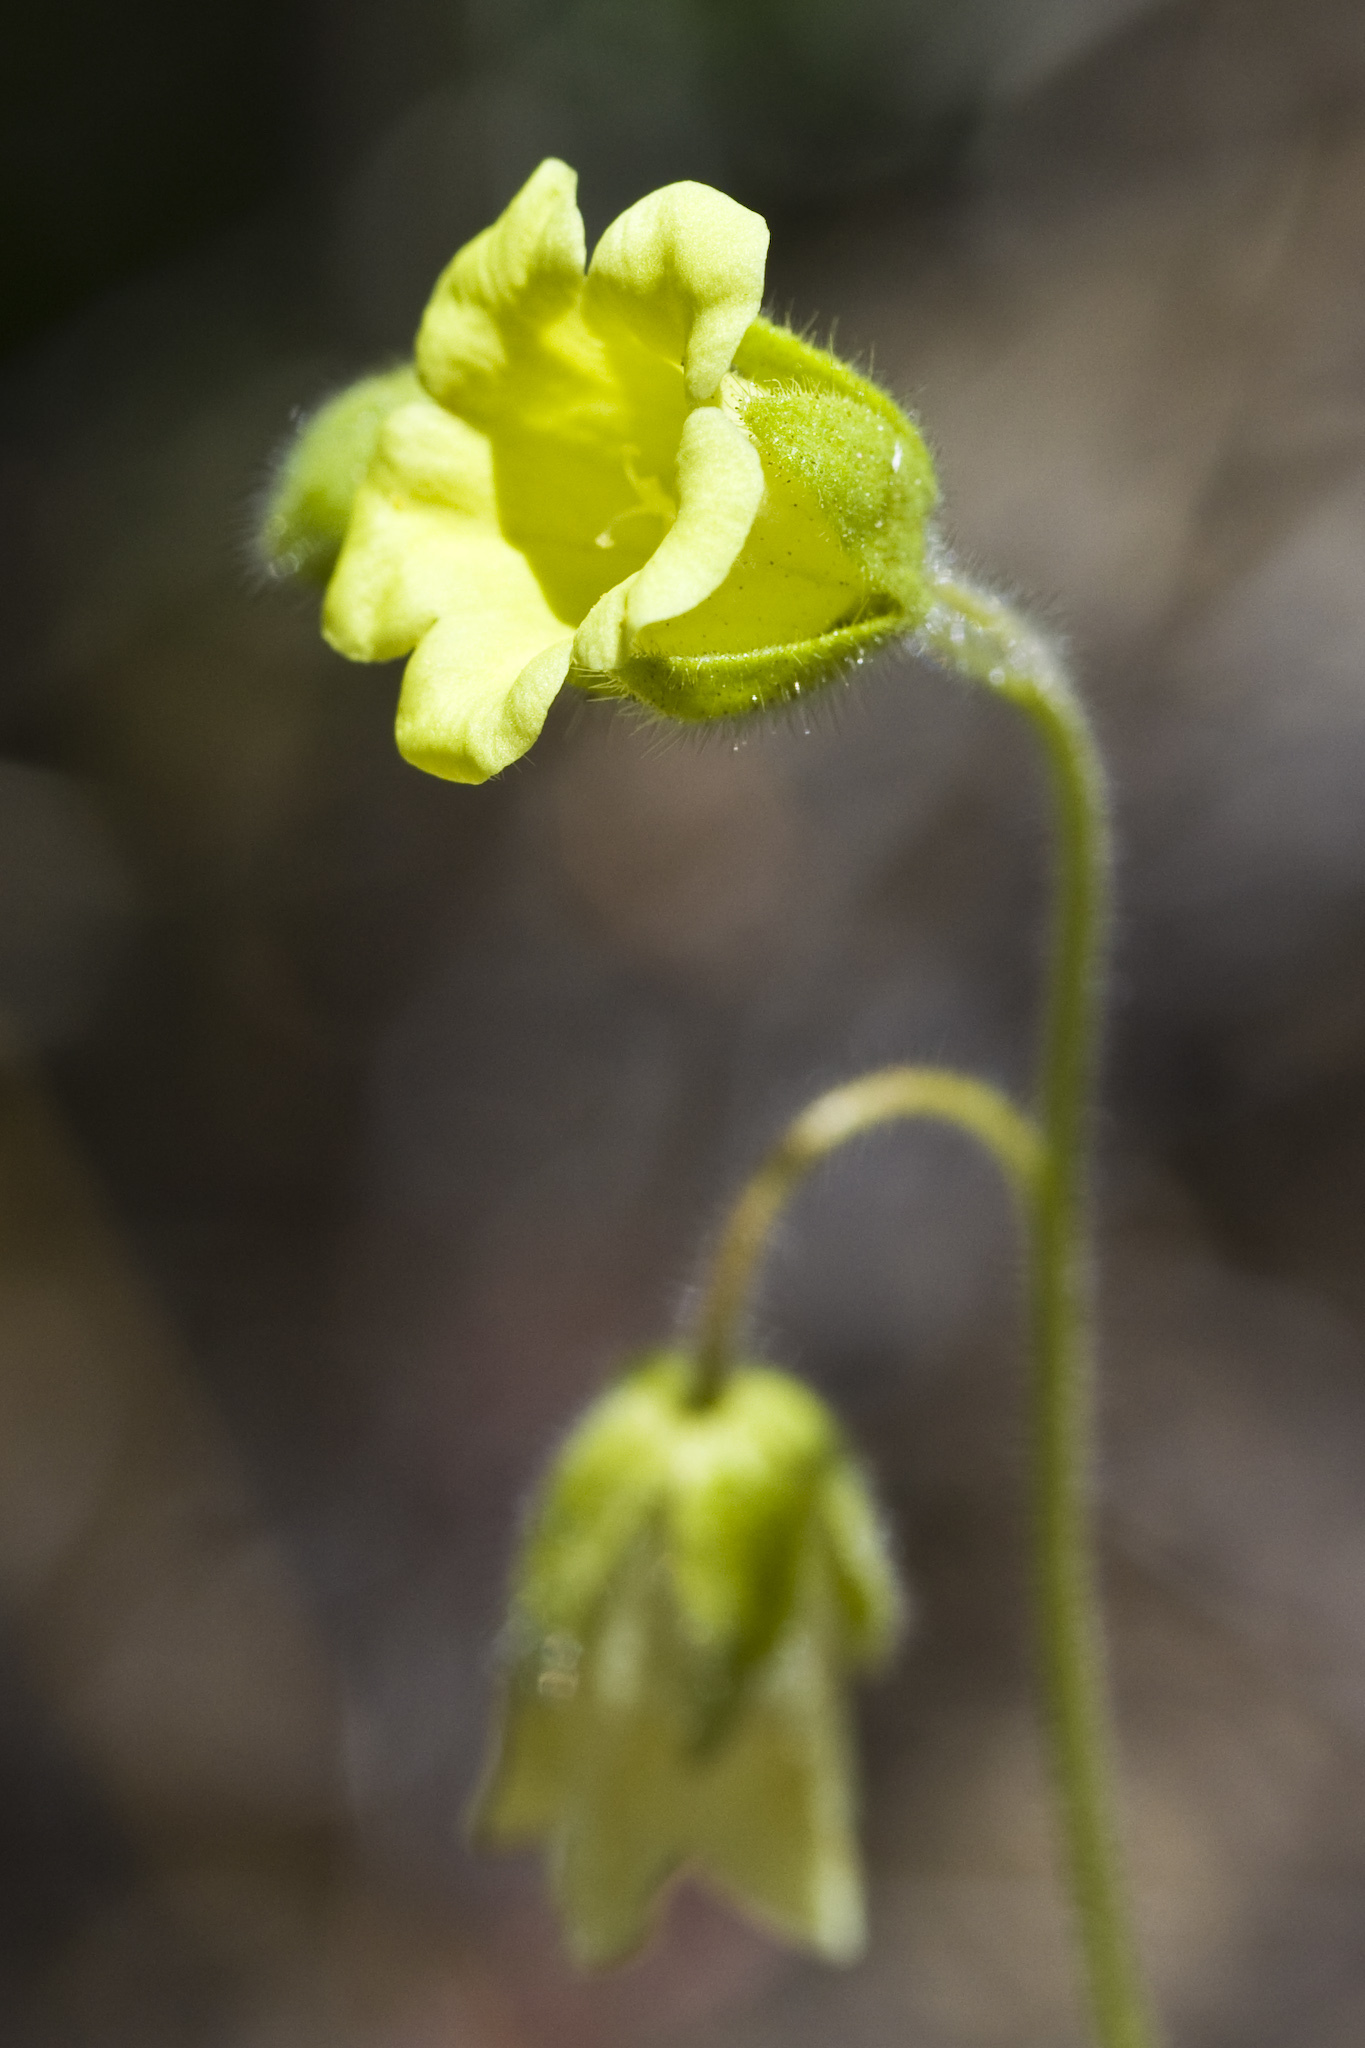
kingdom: Plantae
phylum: Tracheophyta
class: Magnoliopsida
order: Boraginales
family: Hydrophyllaceae
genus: Emmenanthe
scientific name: Emmenanthe penduliflora
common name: Whispering-bells
